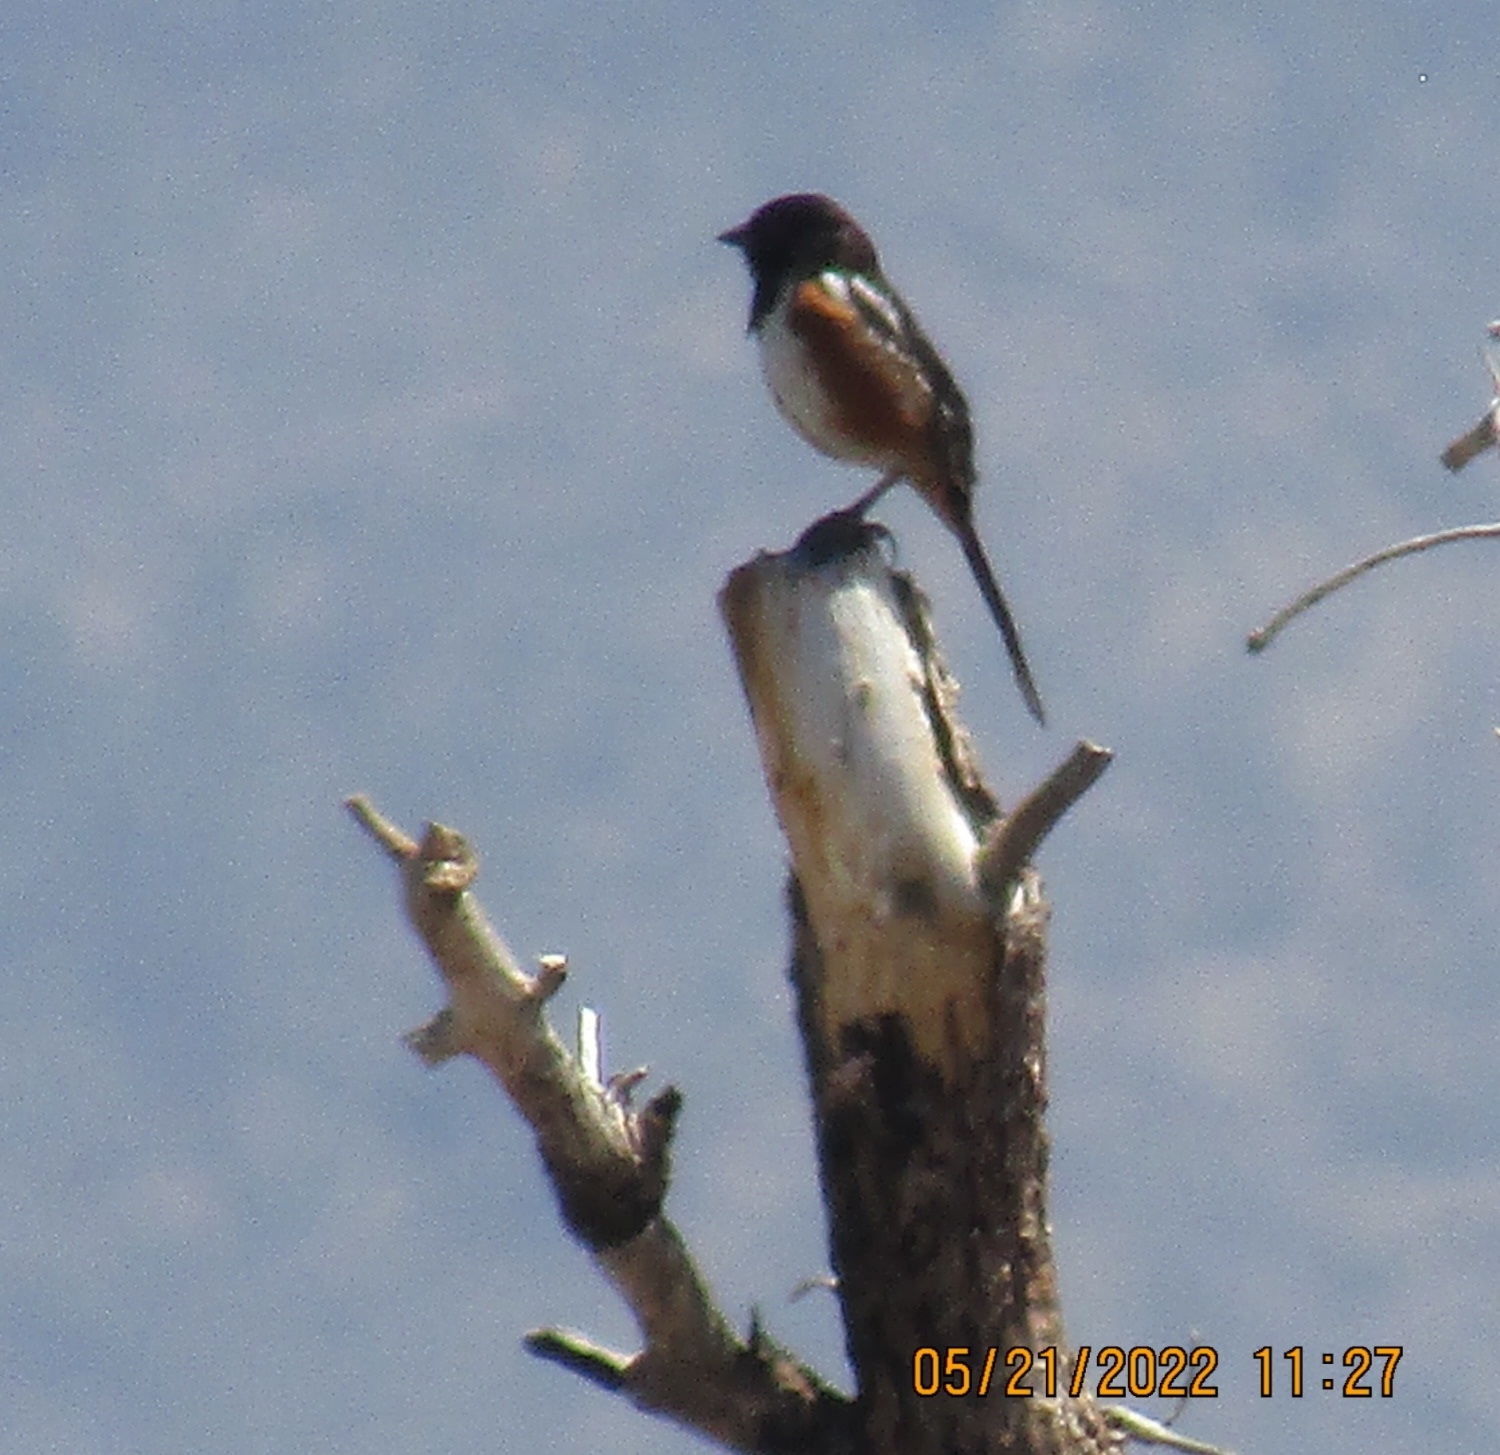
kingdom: Animalia
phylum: Chordata
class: Aves
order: Passeriformes
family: Passerellidae
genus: Pipilo
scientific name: Pipilo maculatus
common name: Spotted towhee
